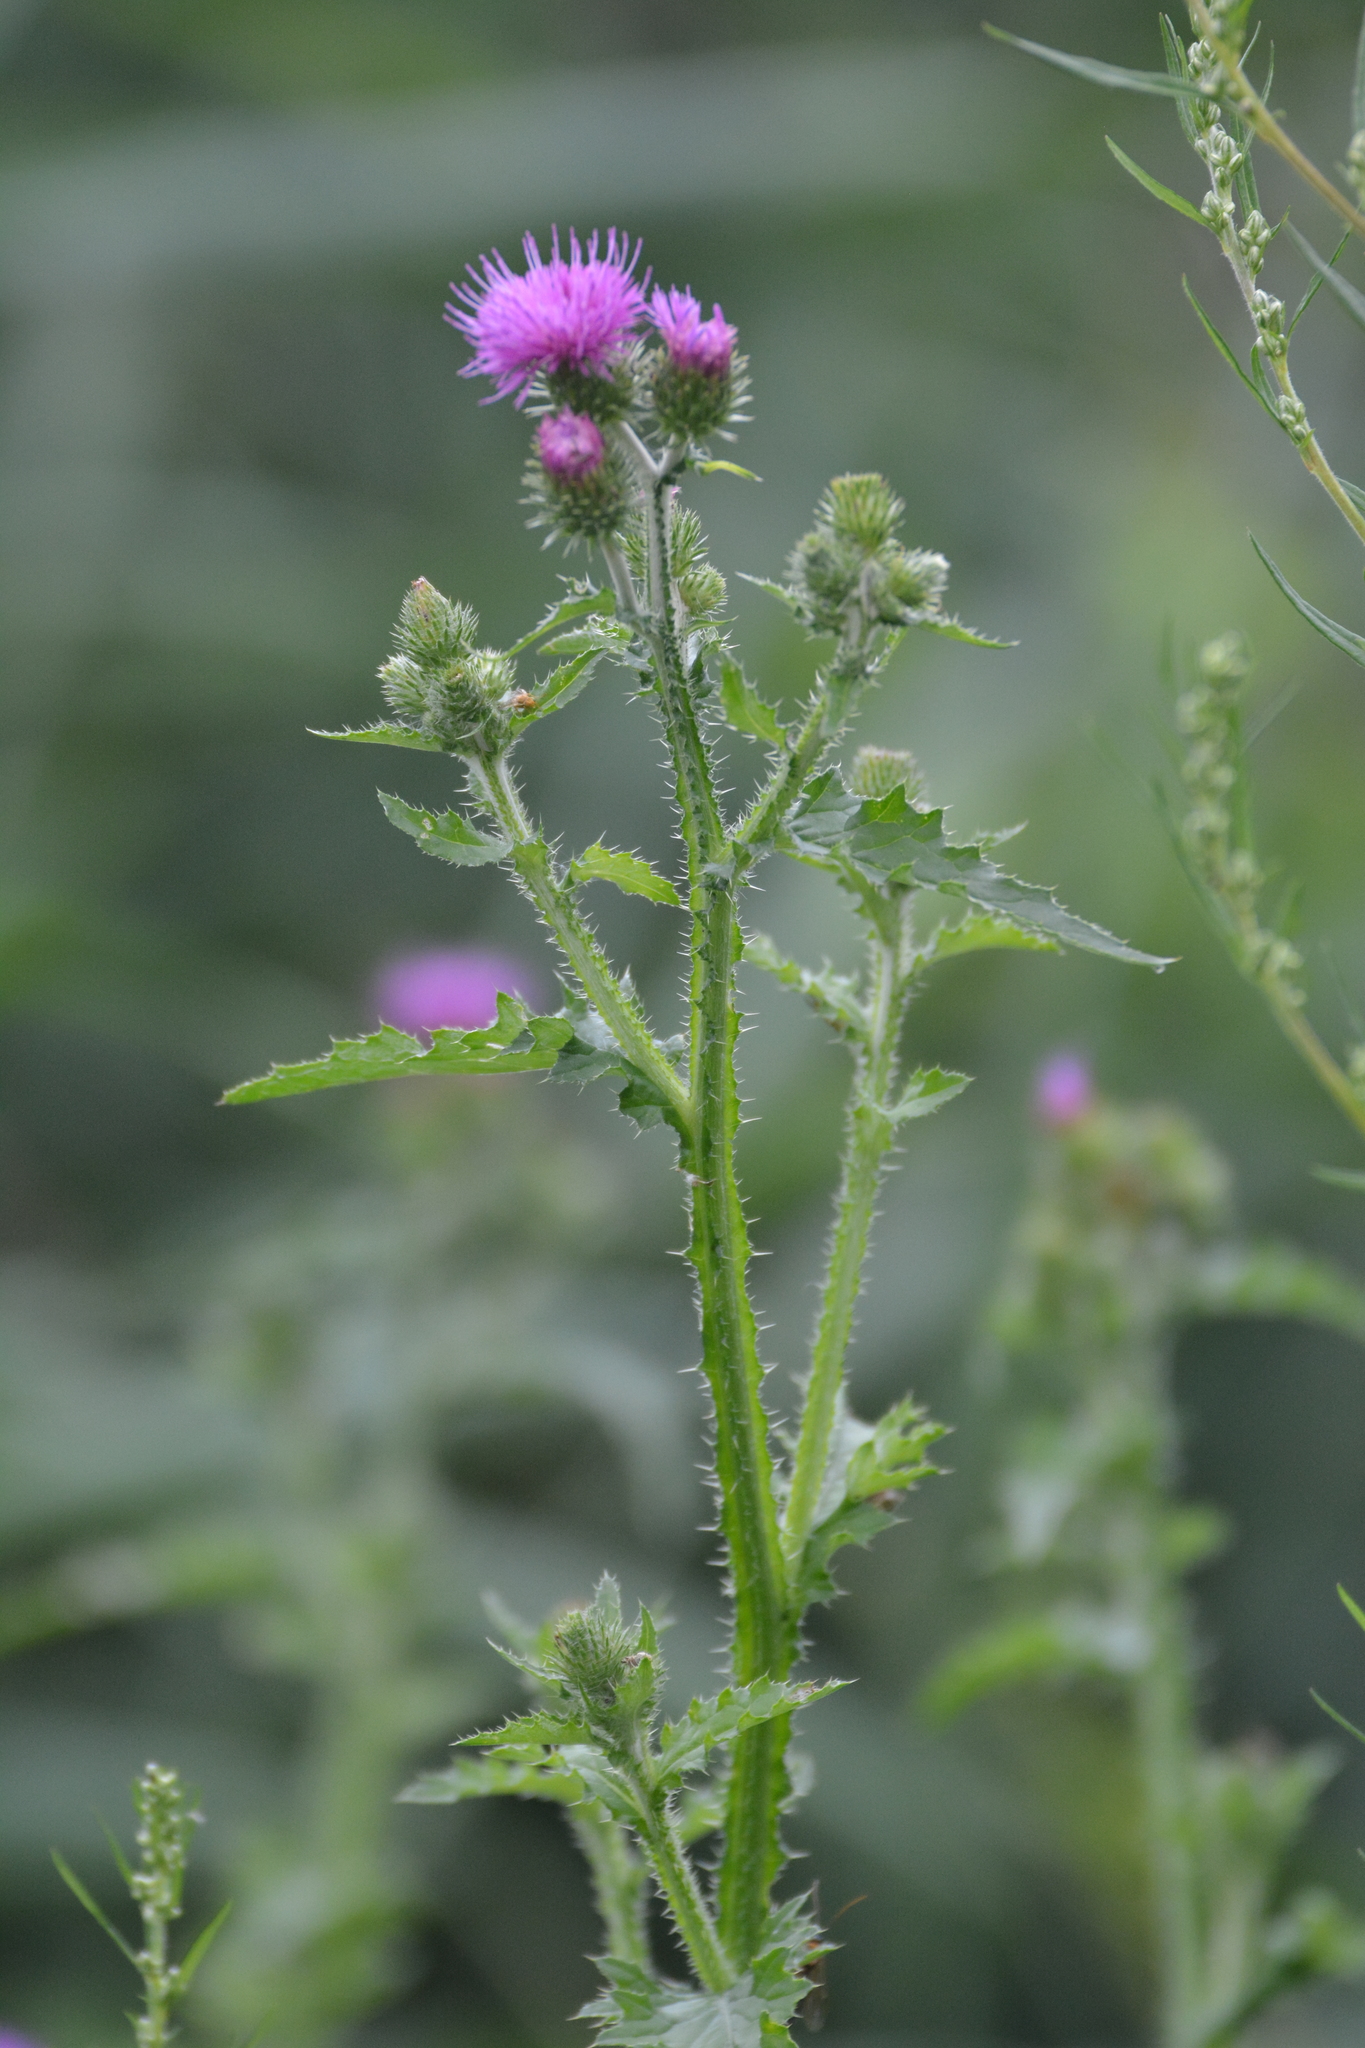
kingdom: Plantae
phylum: Tracheophyta
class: Magnoliopsida
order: Asterales
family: Asteraceae
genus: Carduus
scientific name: Carduus crispus
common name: Welted thistle
